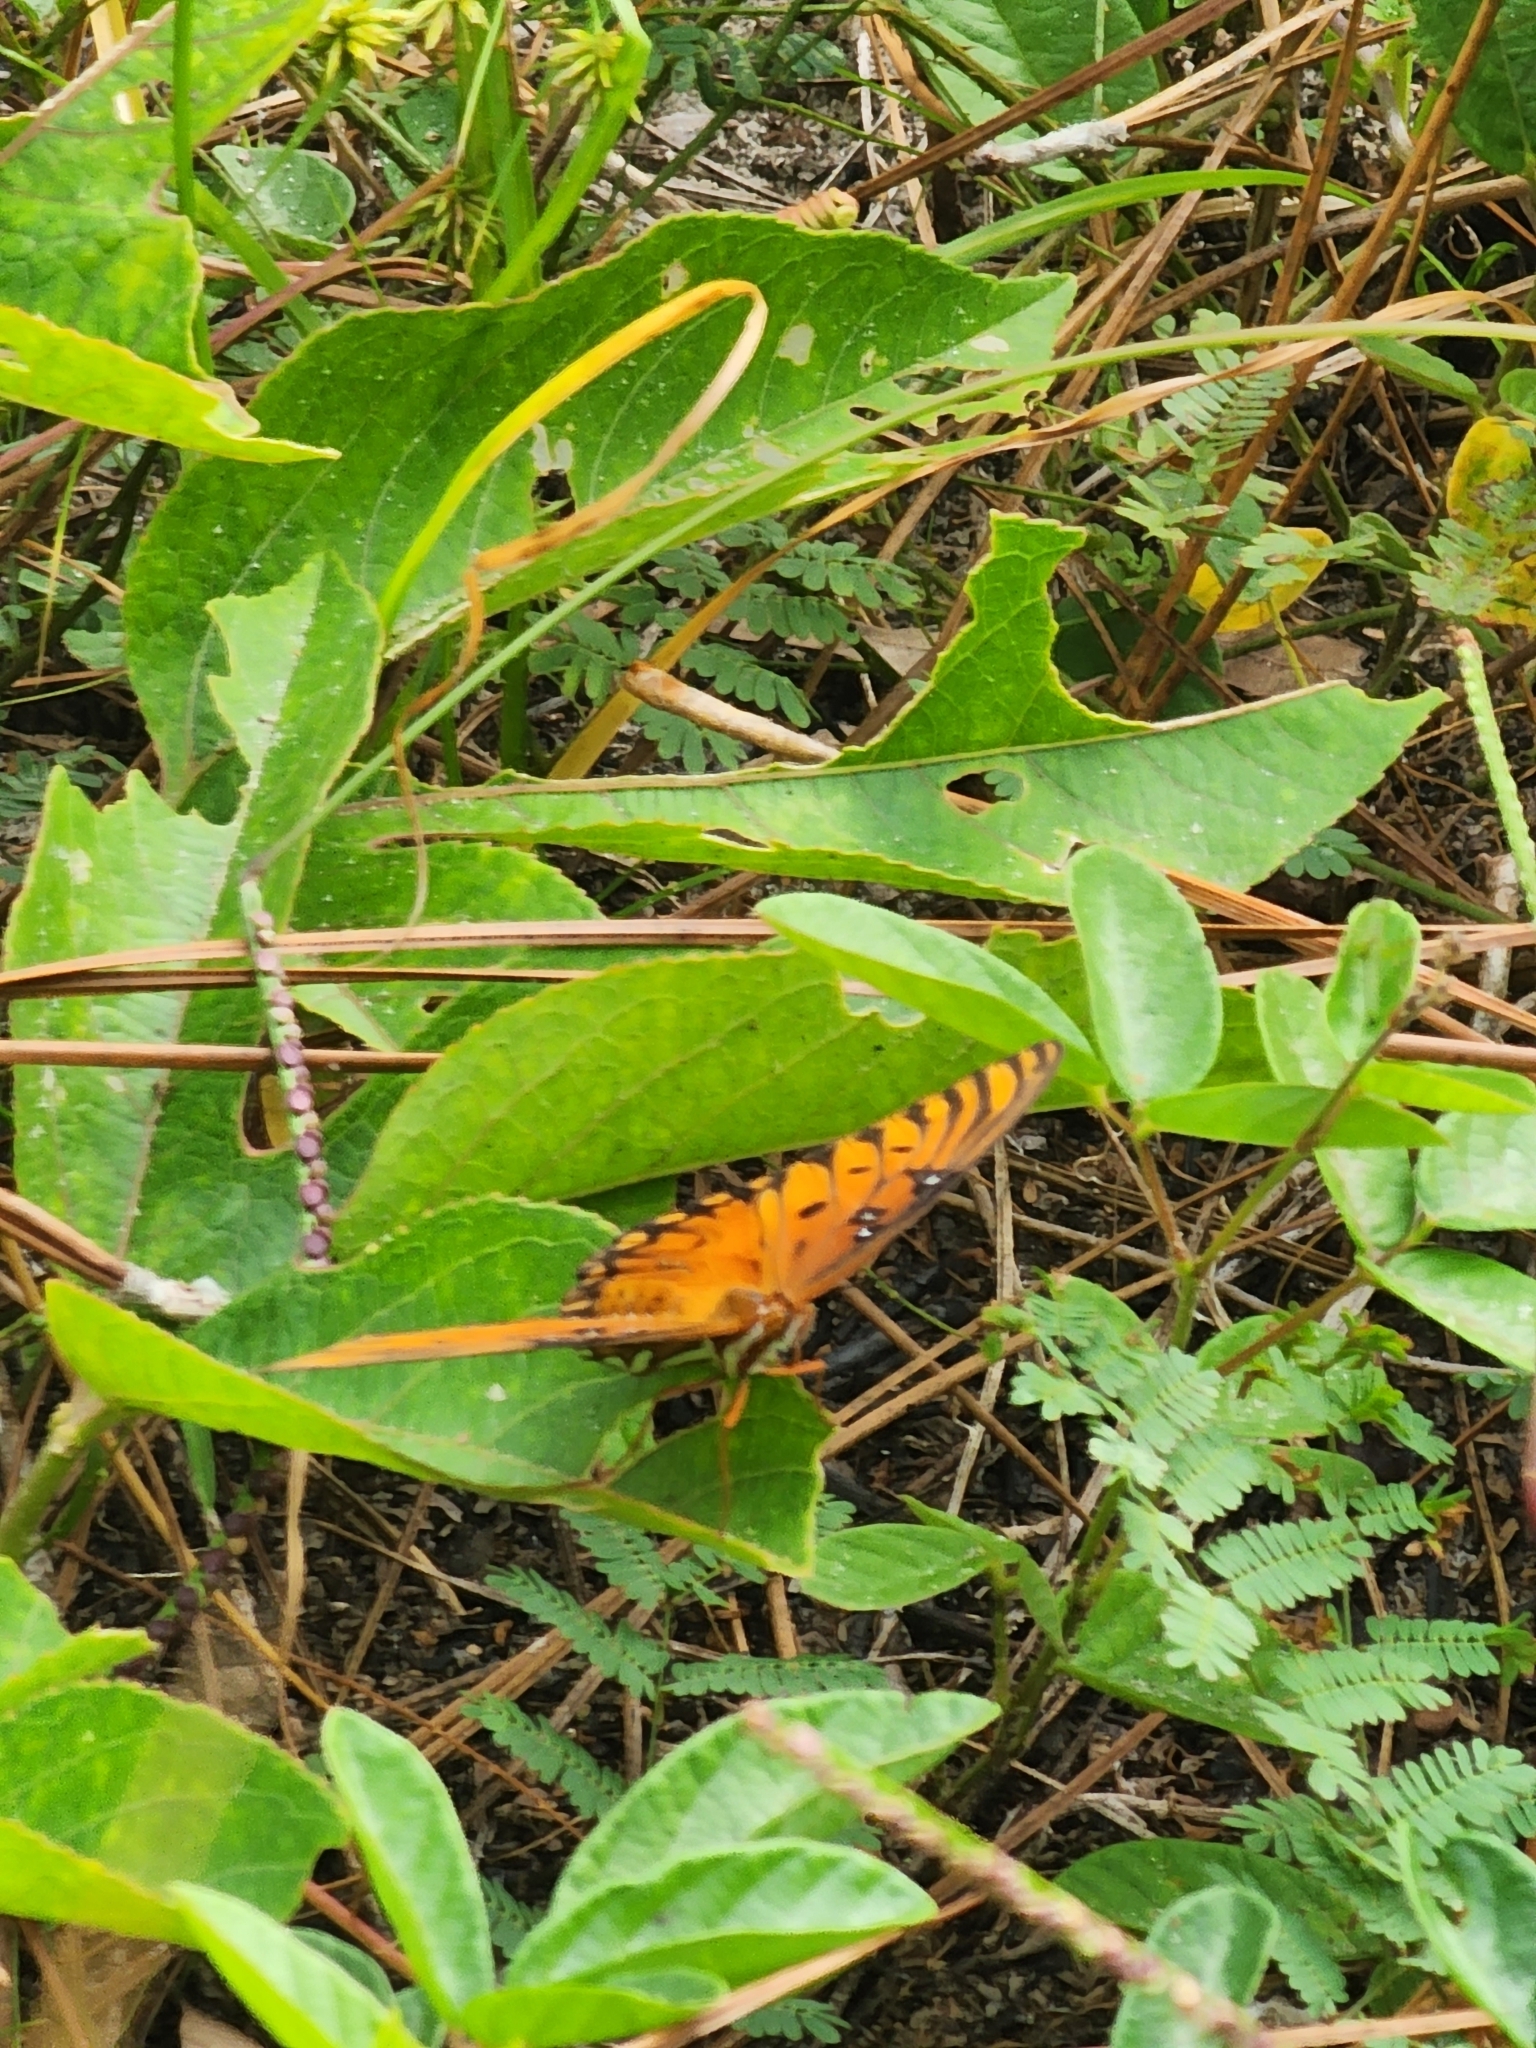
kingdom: Animalia
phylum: Arthropoda
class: Insecta
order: Lepidoptera
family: Nymphalidae
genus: Dione
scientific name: Dione vanillae
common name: Gulf fritillary
